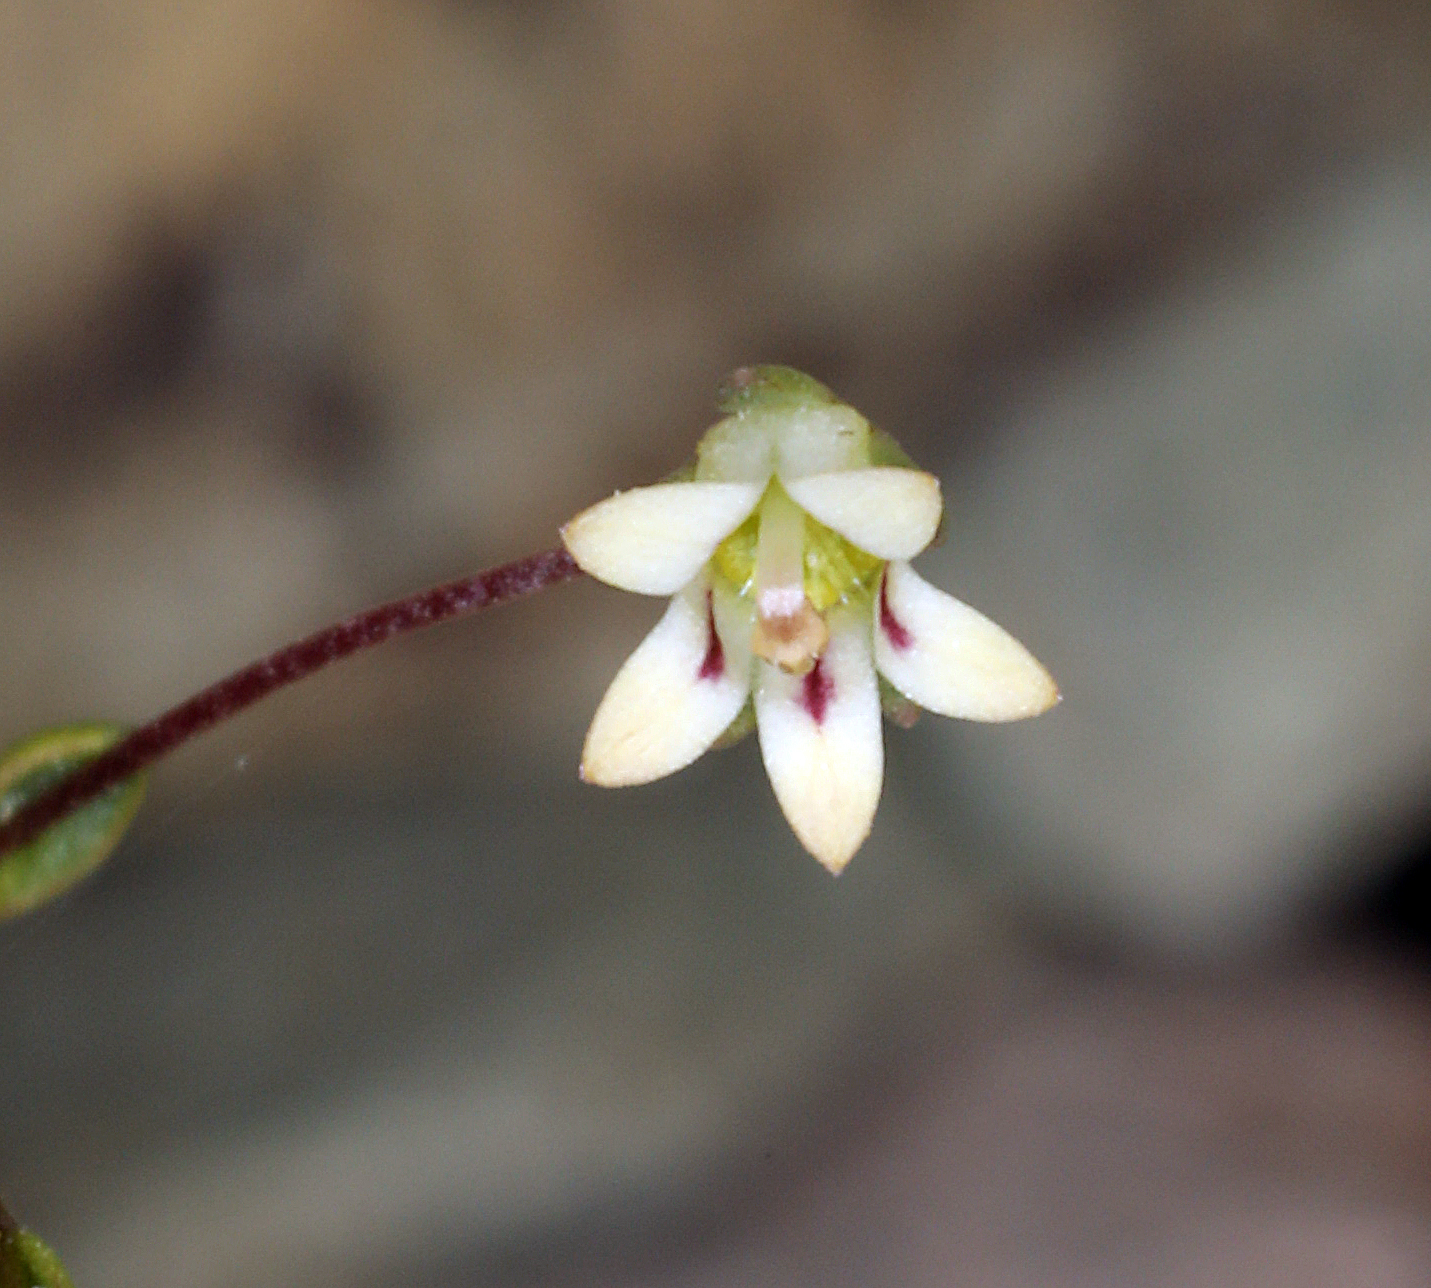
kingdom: Plantae
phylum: Tracheophyta
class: Magnoliopsida
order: Asterales
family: Campanulaceae
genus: Nemacladus
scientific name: Nemacladus inyoensis
